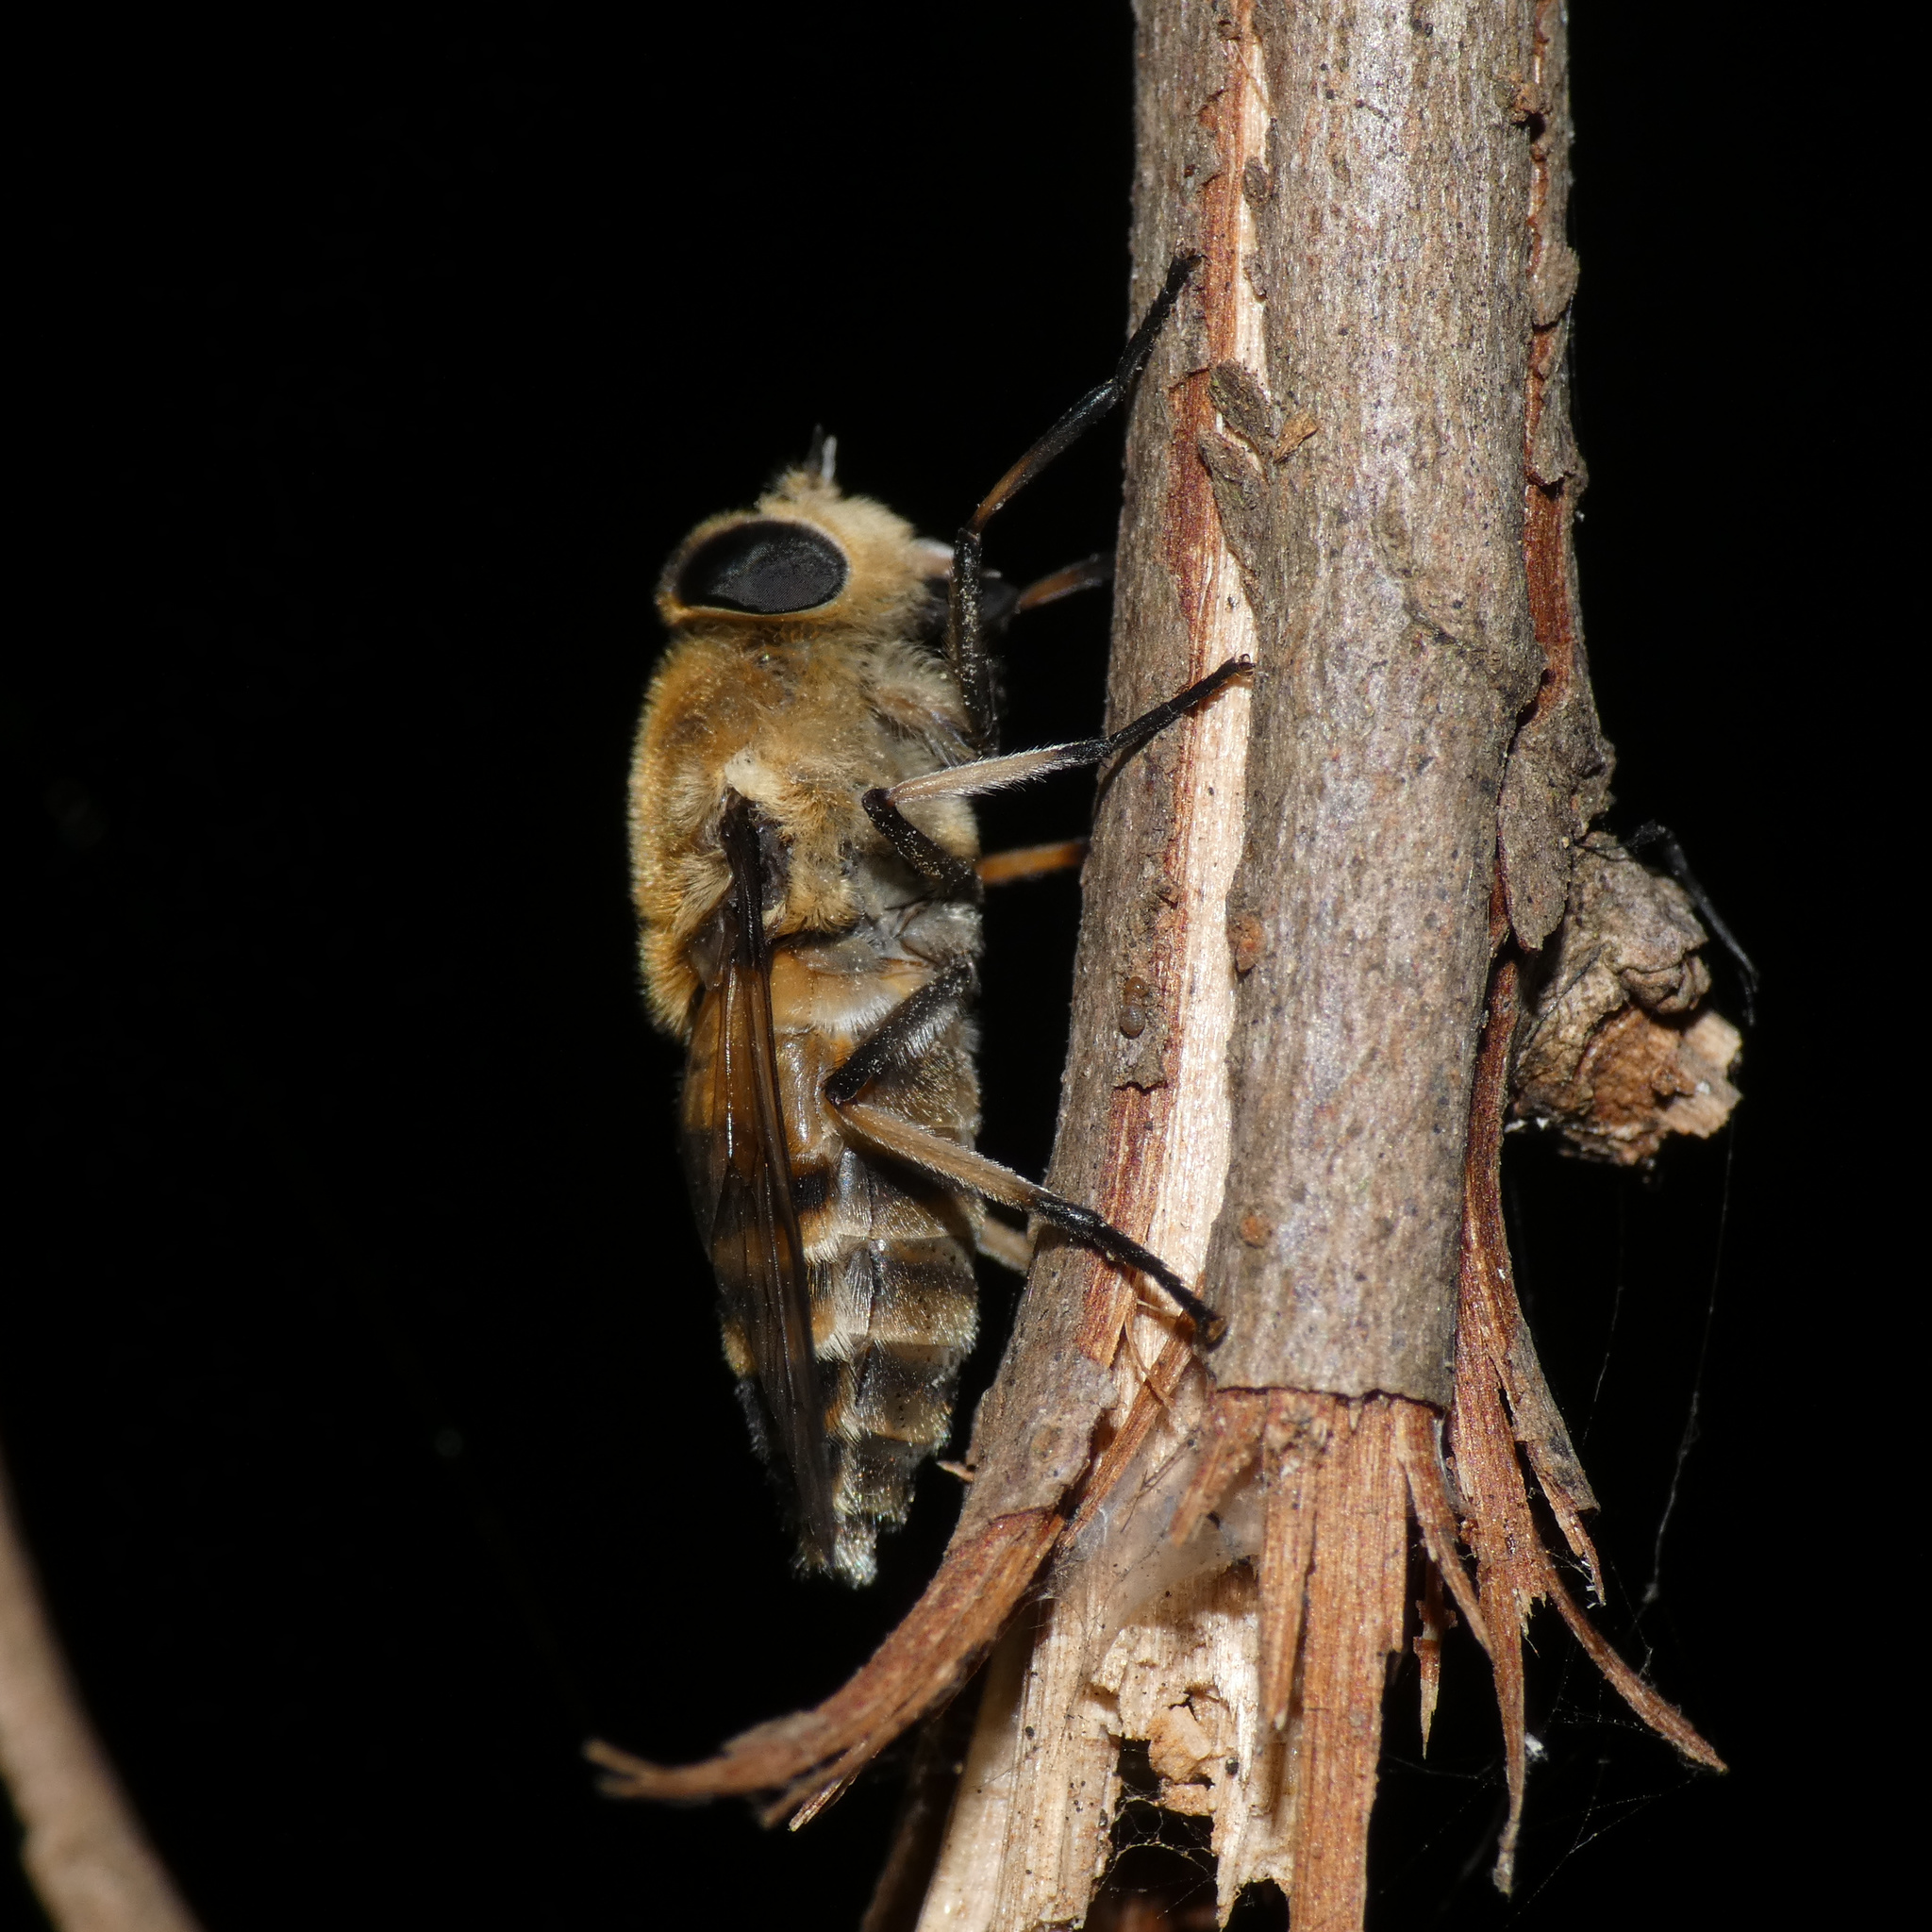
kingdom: Animalia
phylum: Arthropoda
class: Insecta
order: Diptera
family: Tabanidae
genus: Rhigioglossa
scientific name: Rhigioglossa apiformis
